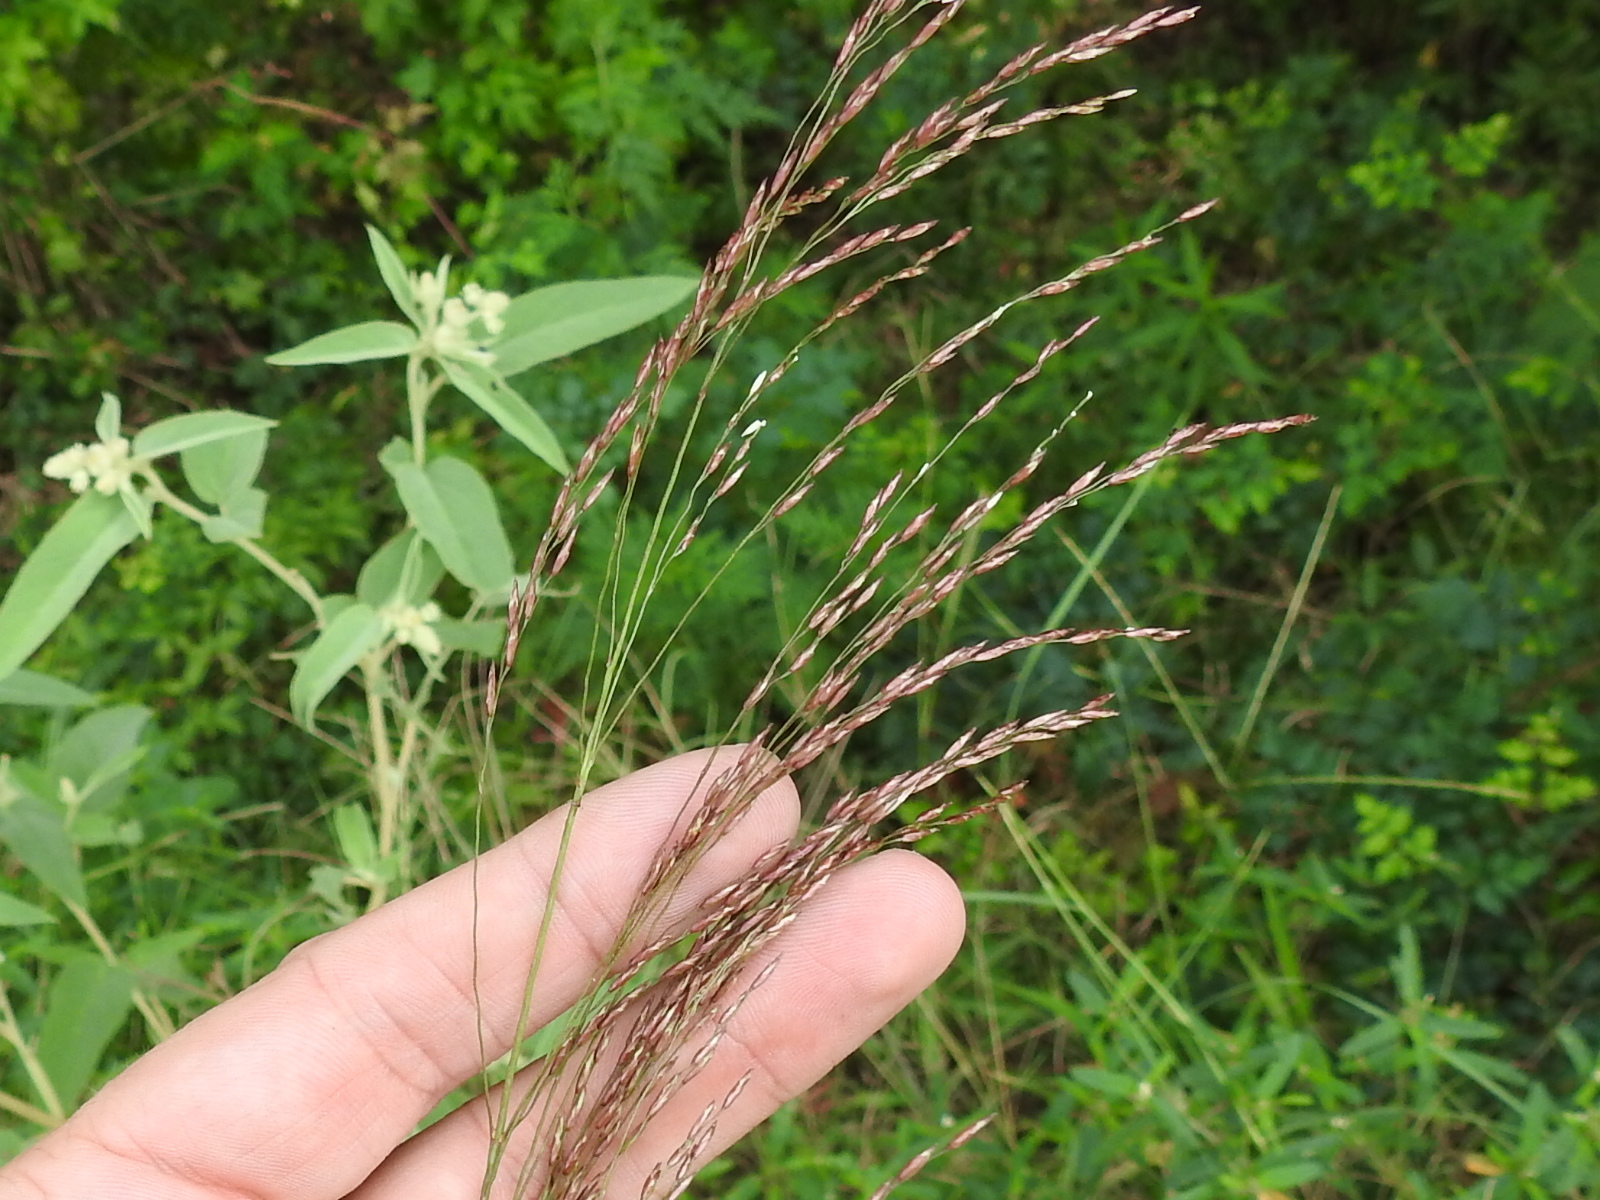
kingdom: Plantae
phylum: Tracheophyta
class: Liliopsida
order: Poales
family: Poaceae
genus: Tridens
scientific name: Tridens flavus
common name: Purpletop
